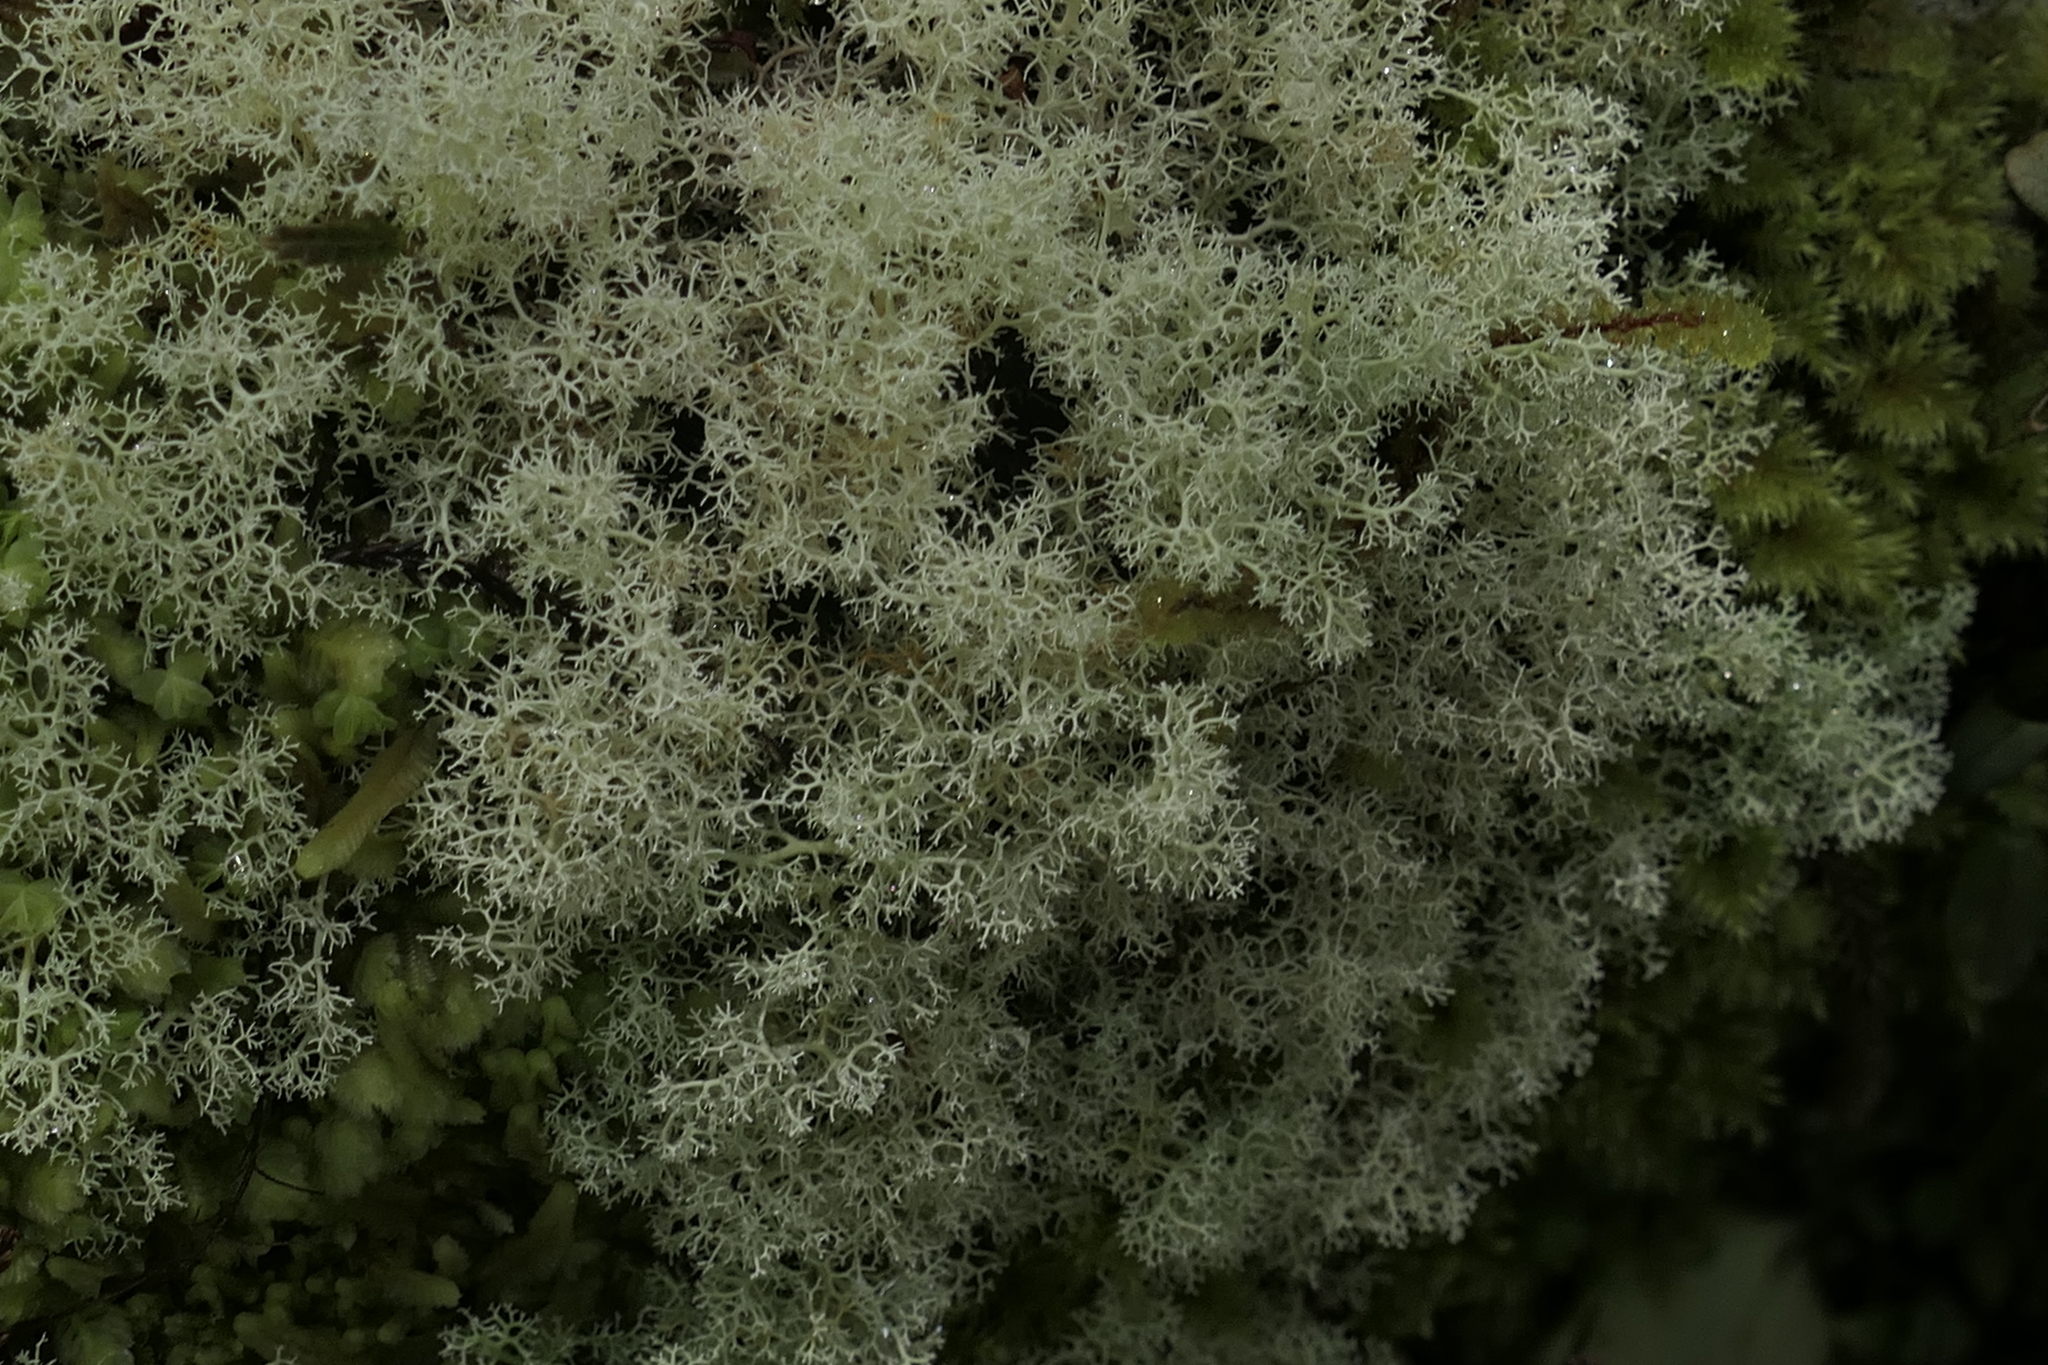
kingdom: Fungi
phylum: Ascomycota
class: Lecanoromycetes
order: Lecanorales
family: Cladoniaceae
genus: Cladonia
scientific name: Cladonia confusa
